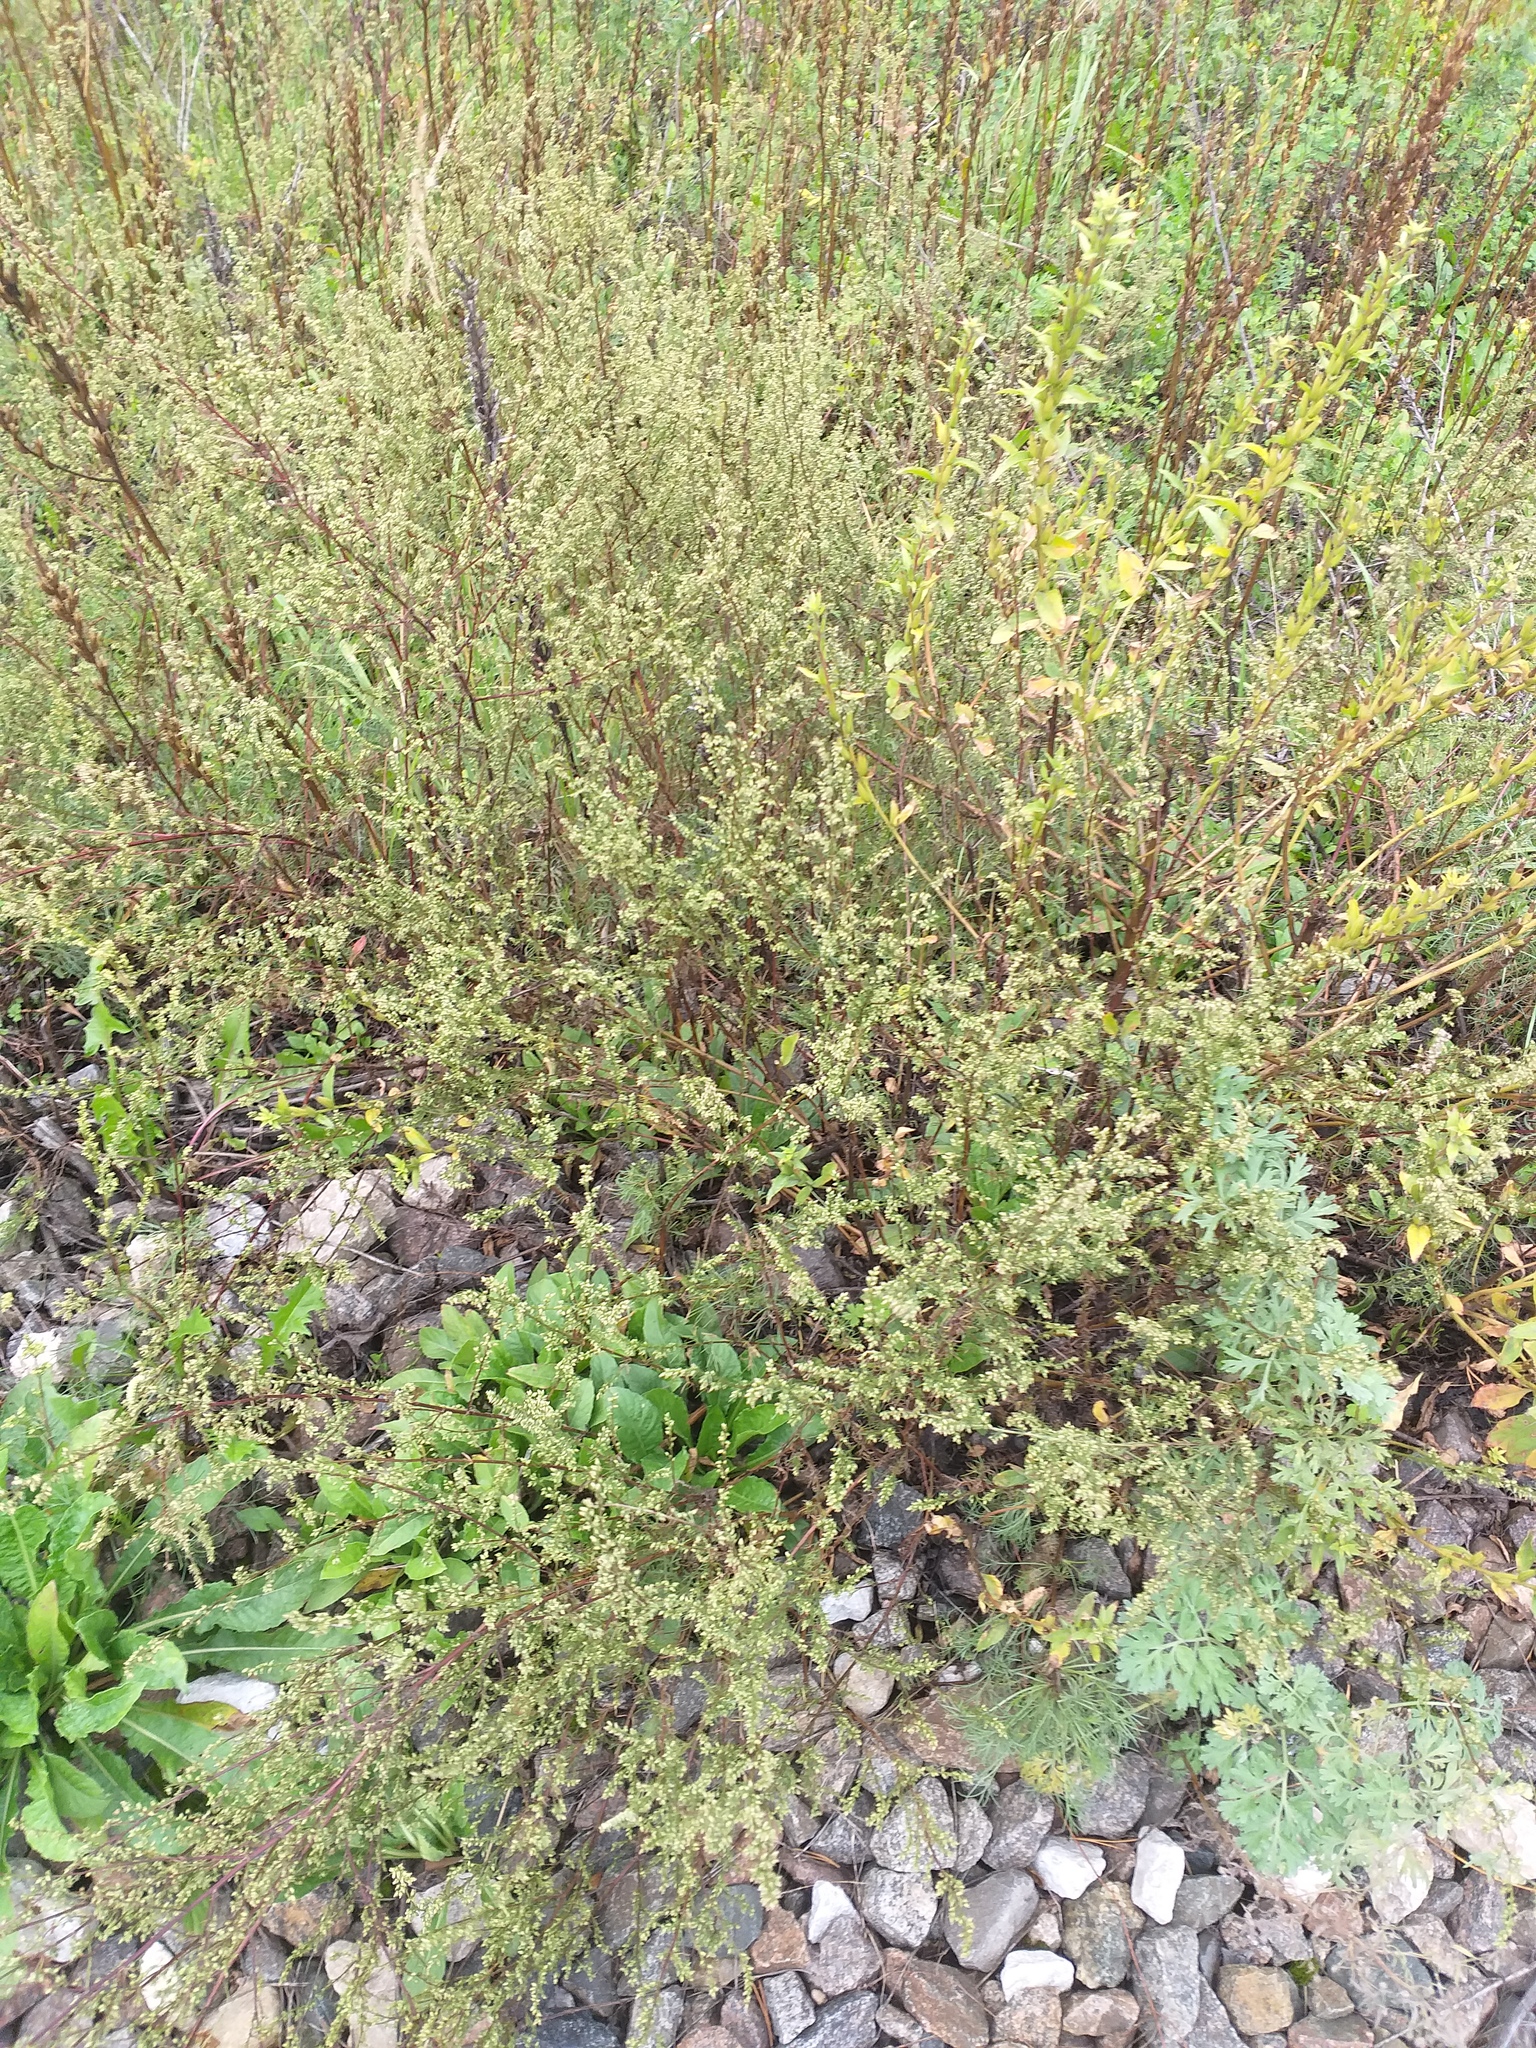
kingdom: Plantae
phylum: Tracheophyta
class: Magnoliopsida
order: Asterales
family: Asteraceae
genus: Artemisia
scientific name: Artemisia campestris
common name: Field wormwood
